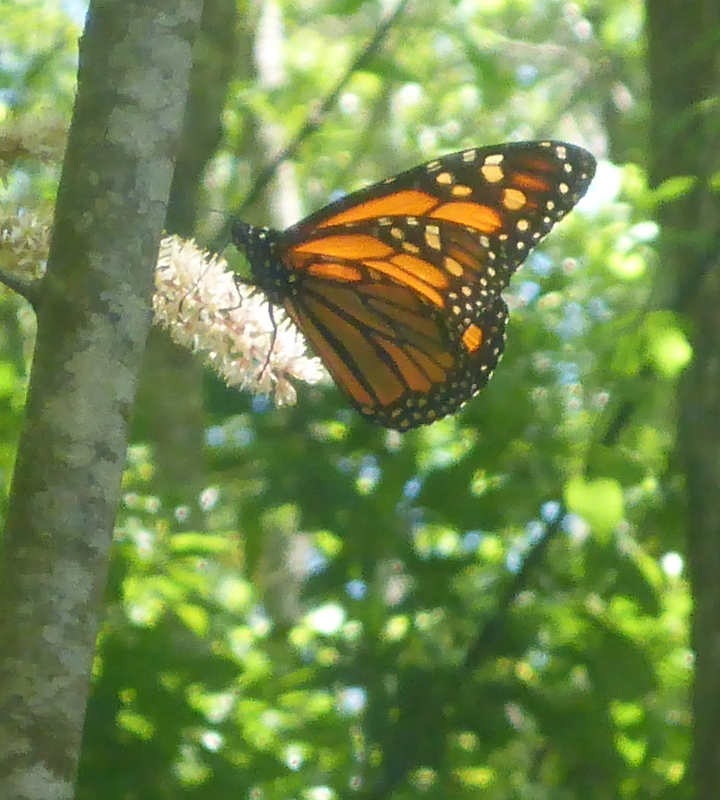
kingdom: Animalia
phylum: Arthropoda
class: Insecta
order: Lepidoptera
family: Nymphalidae
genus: Danaus
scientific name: Danaus plexippus
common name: Monarch
